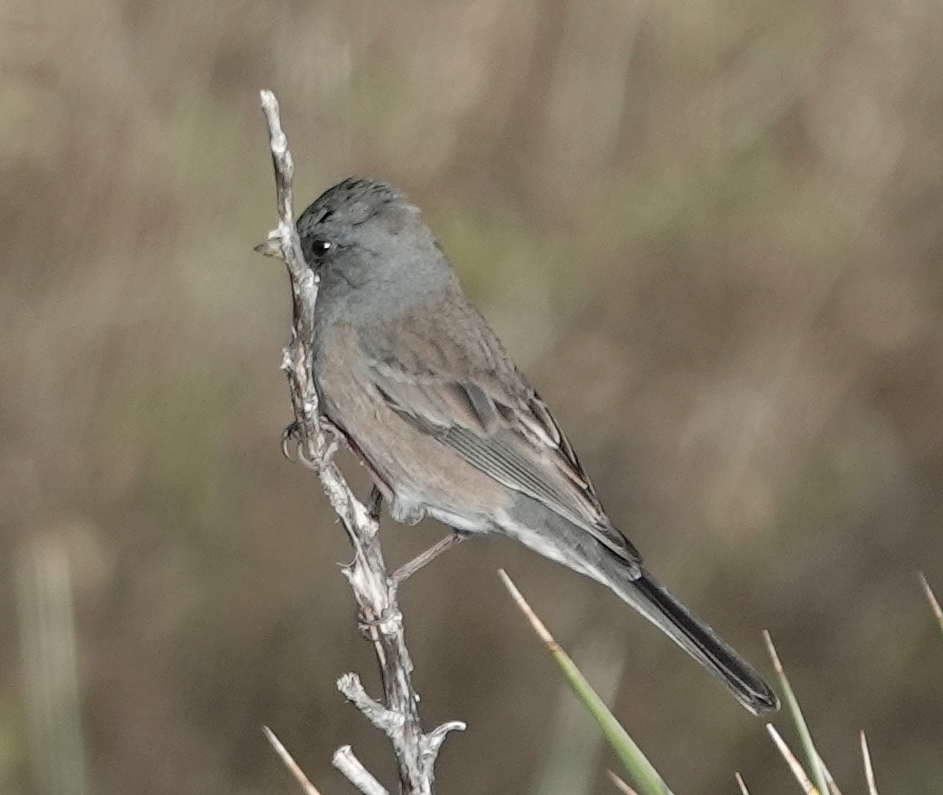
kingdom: Animalia
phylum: Chordata
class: Aves
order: Passeriformes
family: Passerellidae
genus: Junco
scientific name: Junco hyemalis
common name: Dark-eyed junco
